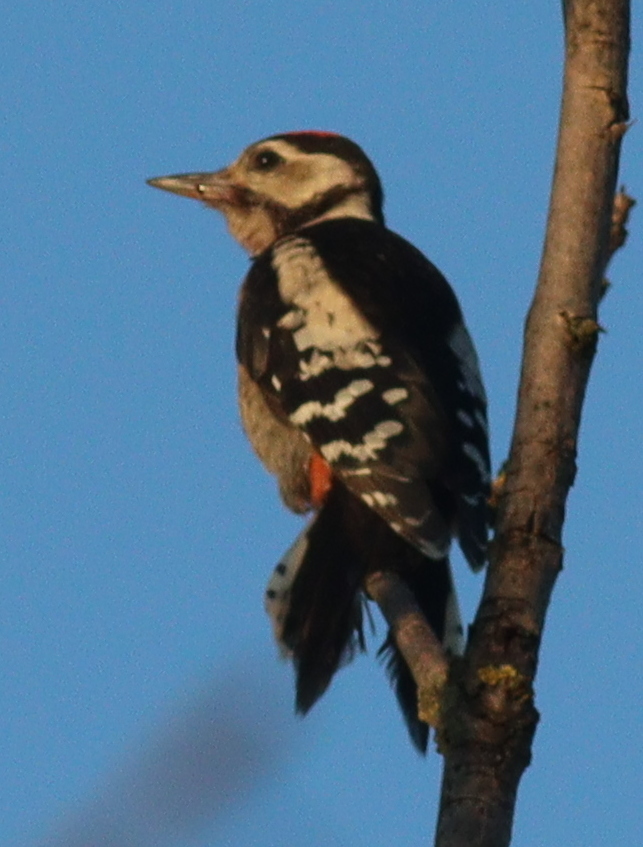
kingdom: Animalia
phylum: Chordata
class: Aves
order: Piciformes
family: Picidae
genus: Dendrocopos
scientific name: Dendrocopos major
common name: Great spotted woodpecker
